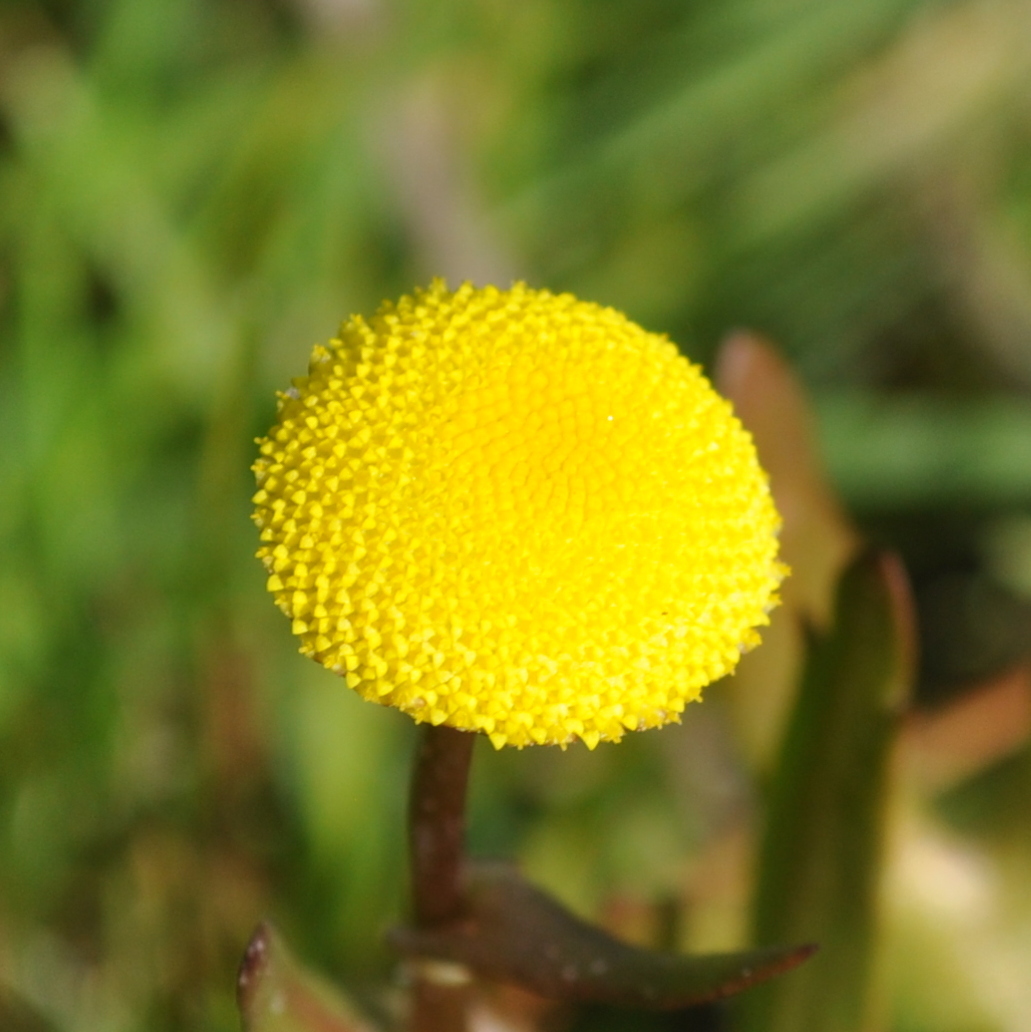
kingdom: Plantae
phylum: Tracheophyta
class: Magnoliopsida
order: Asterales
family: Asteraceae
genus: Cotula
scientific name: Cotula coronopifolia
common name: Buttonweed
